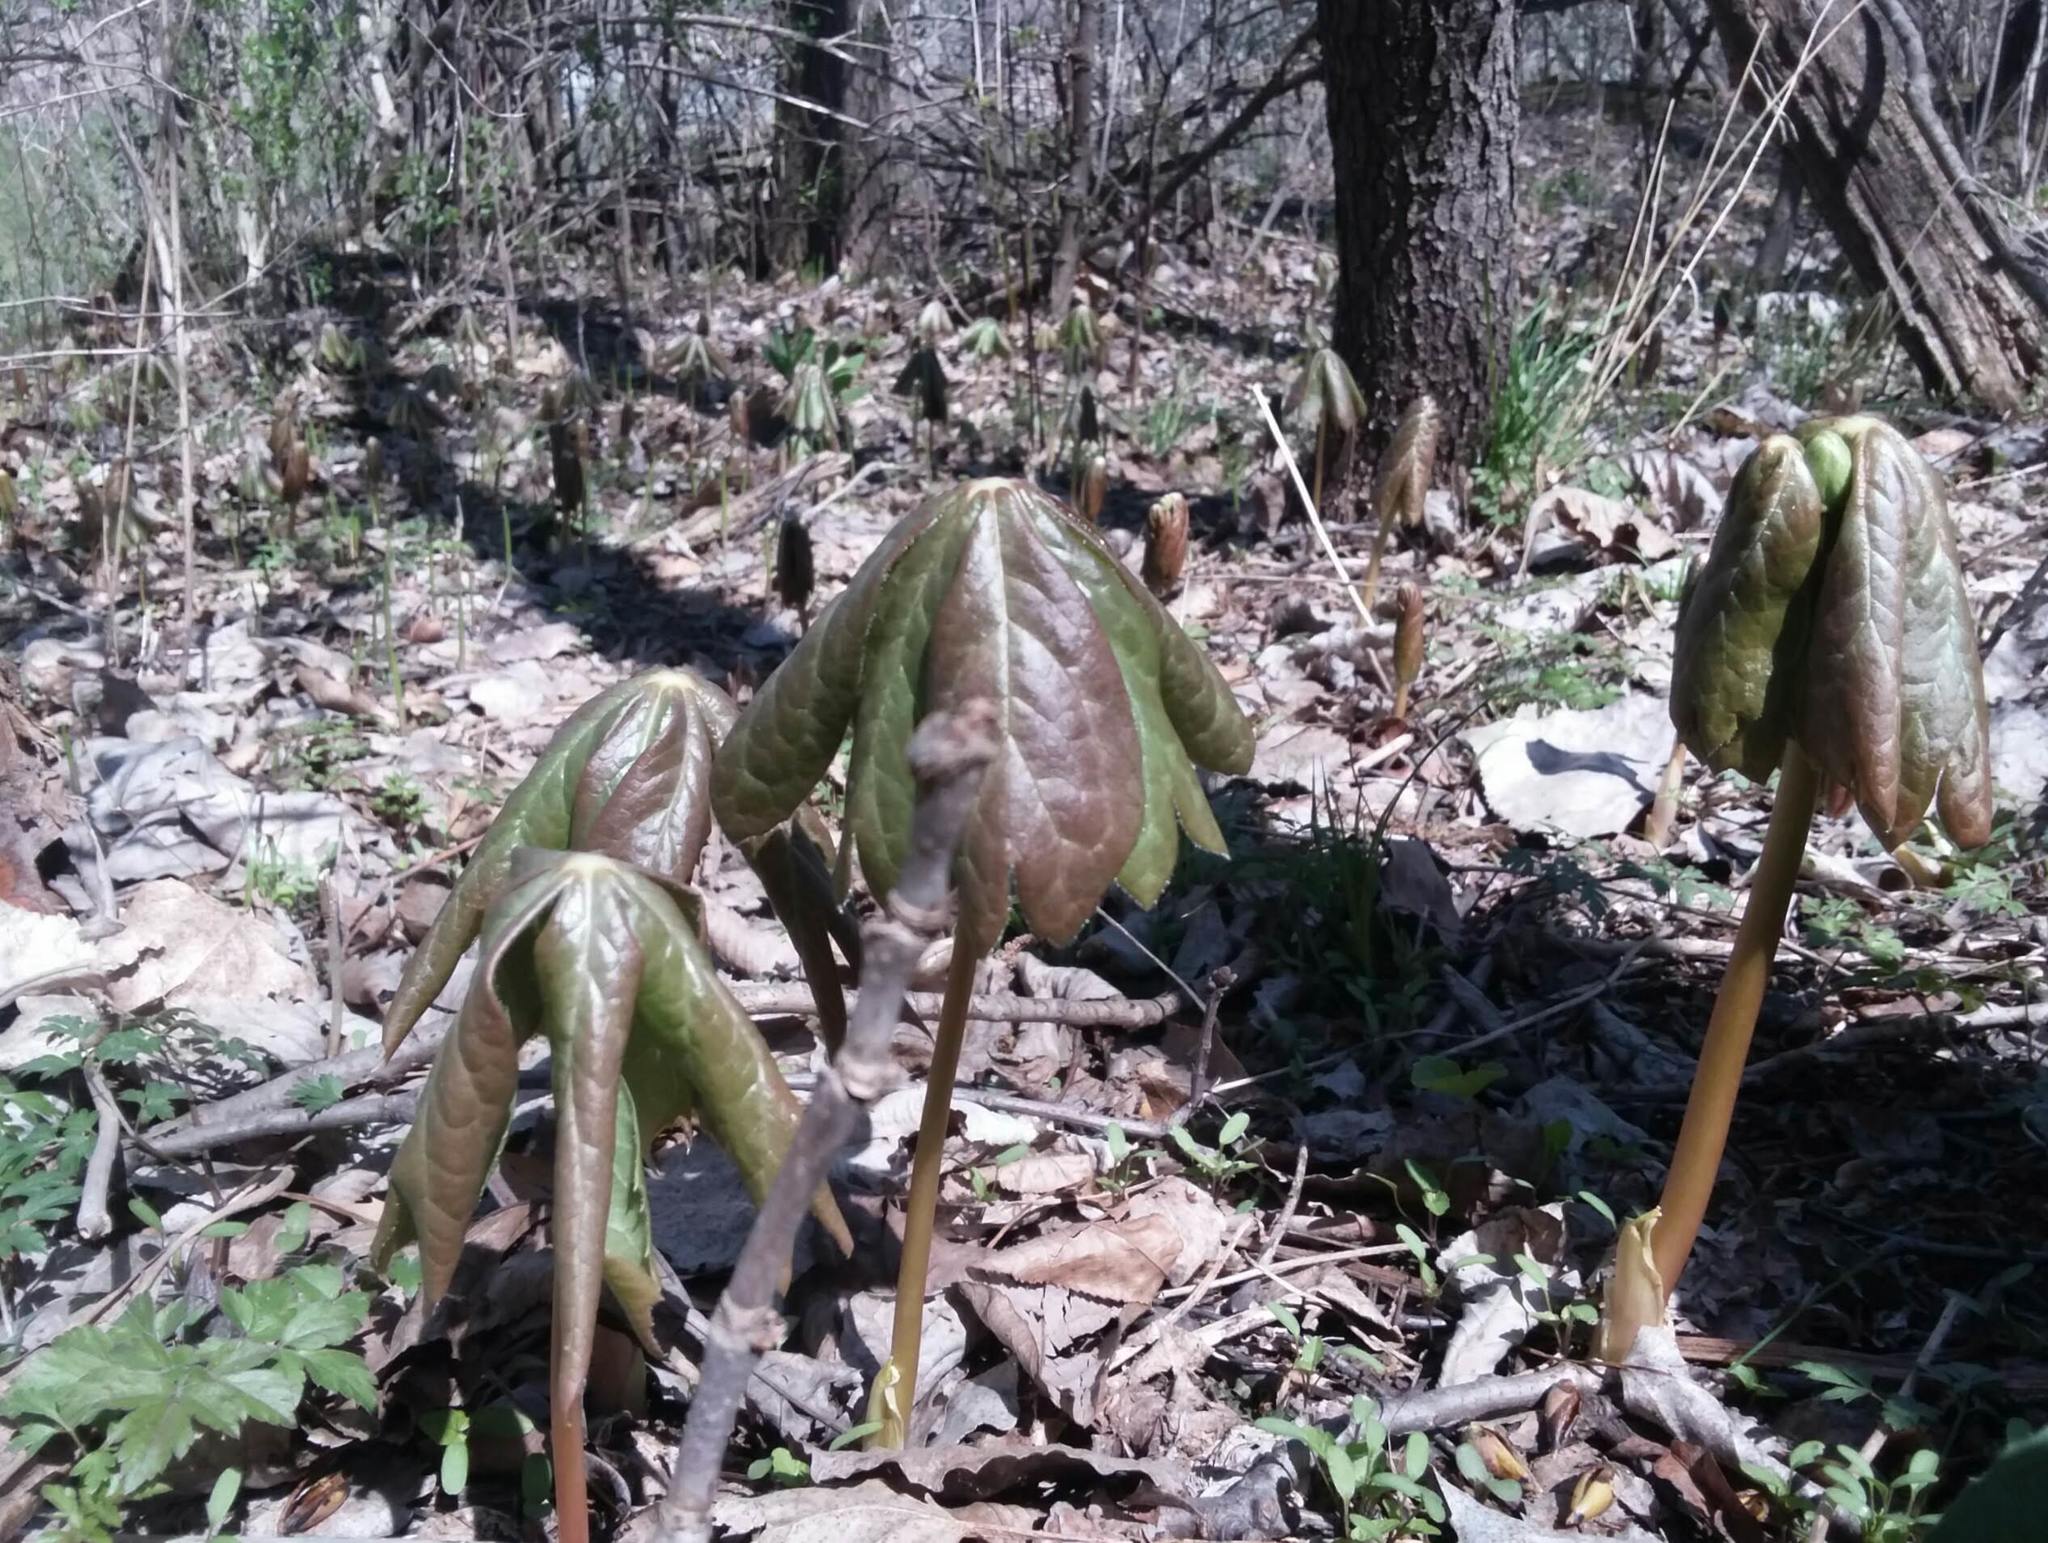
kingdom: Plantae
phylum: Tracheophyta
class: Magnoliopsida
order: Ranunculales
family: Berberidaceae
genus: Podophyllum
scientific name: Podophyllum peltatum
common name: Wild mandrake
